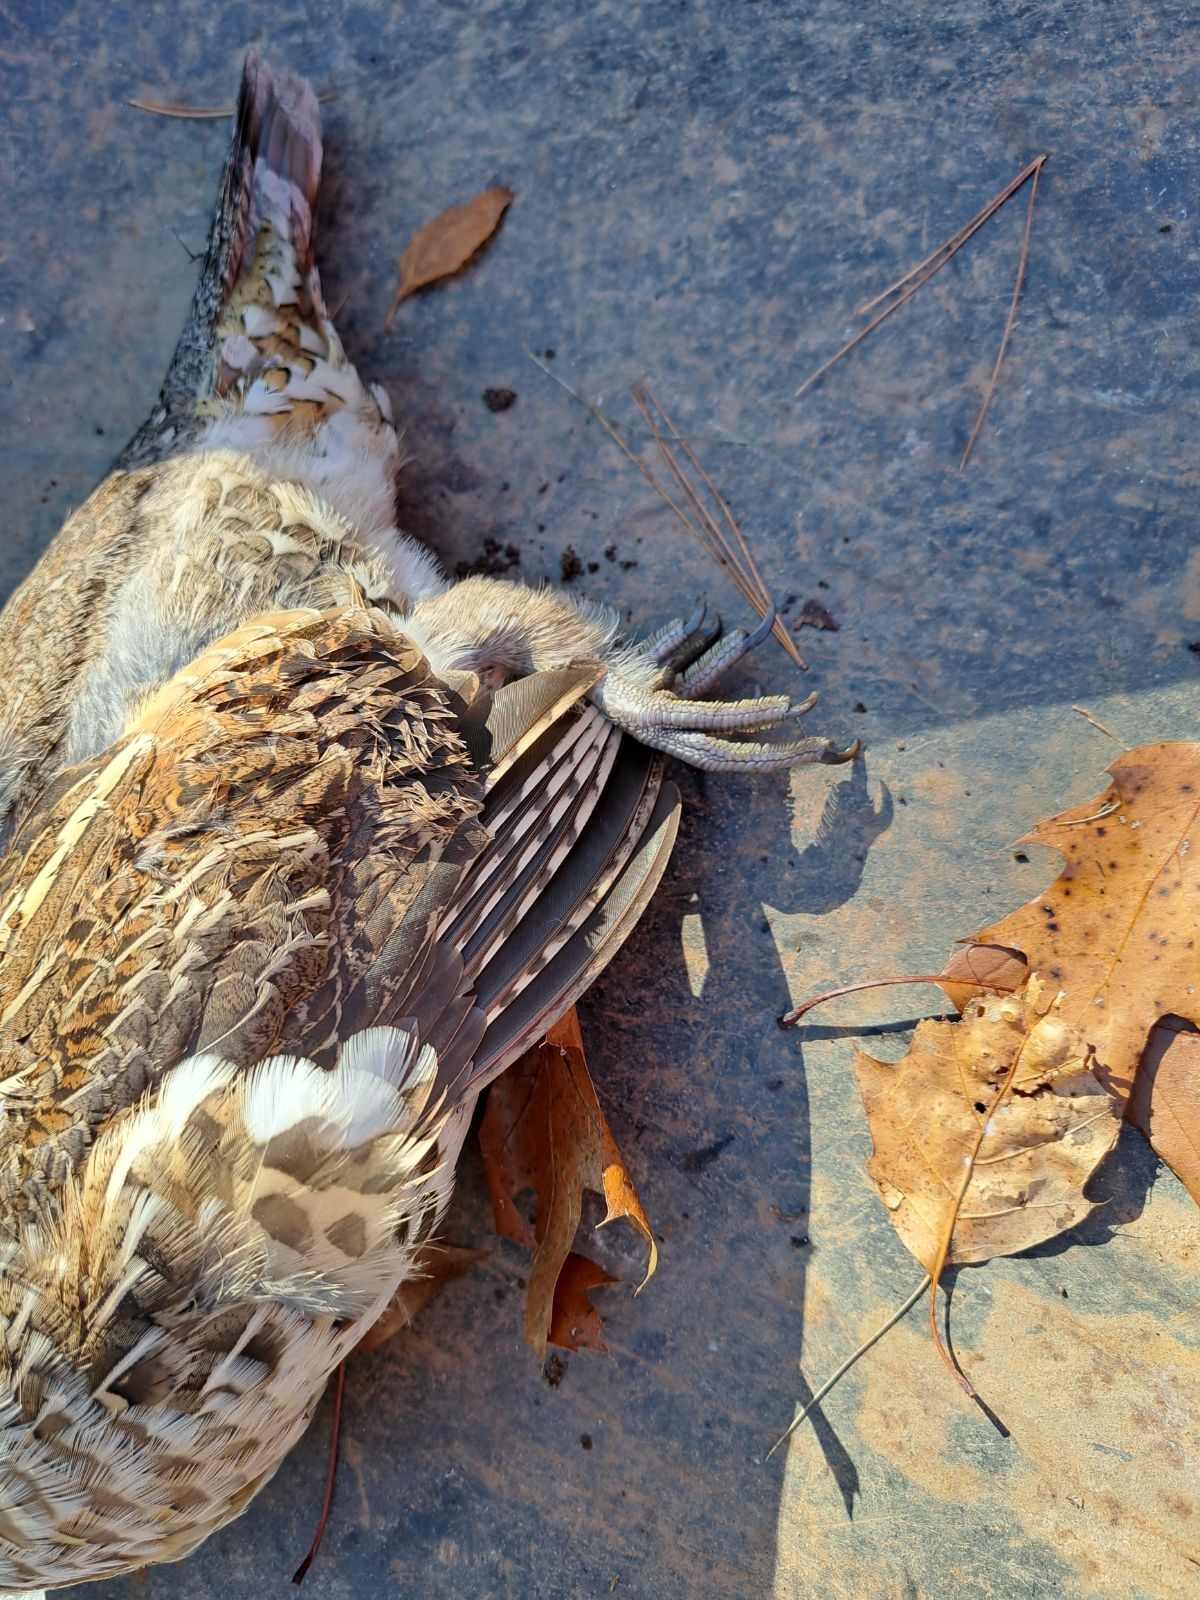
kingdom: Animalia
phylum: Chordata
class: Aves
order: Galliformes
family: Phasianidae
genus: Bonasa
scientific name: Bonasa umbellus
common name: Ruffed grouse
